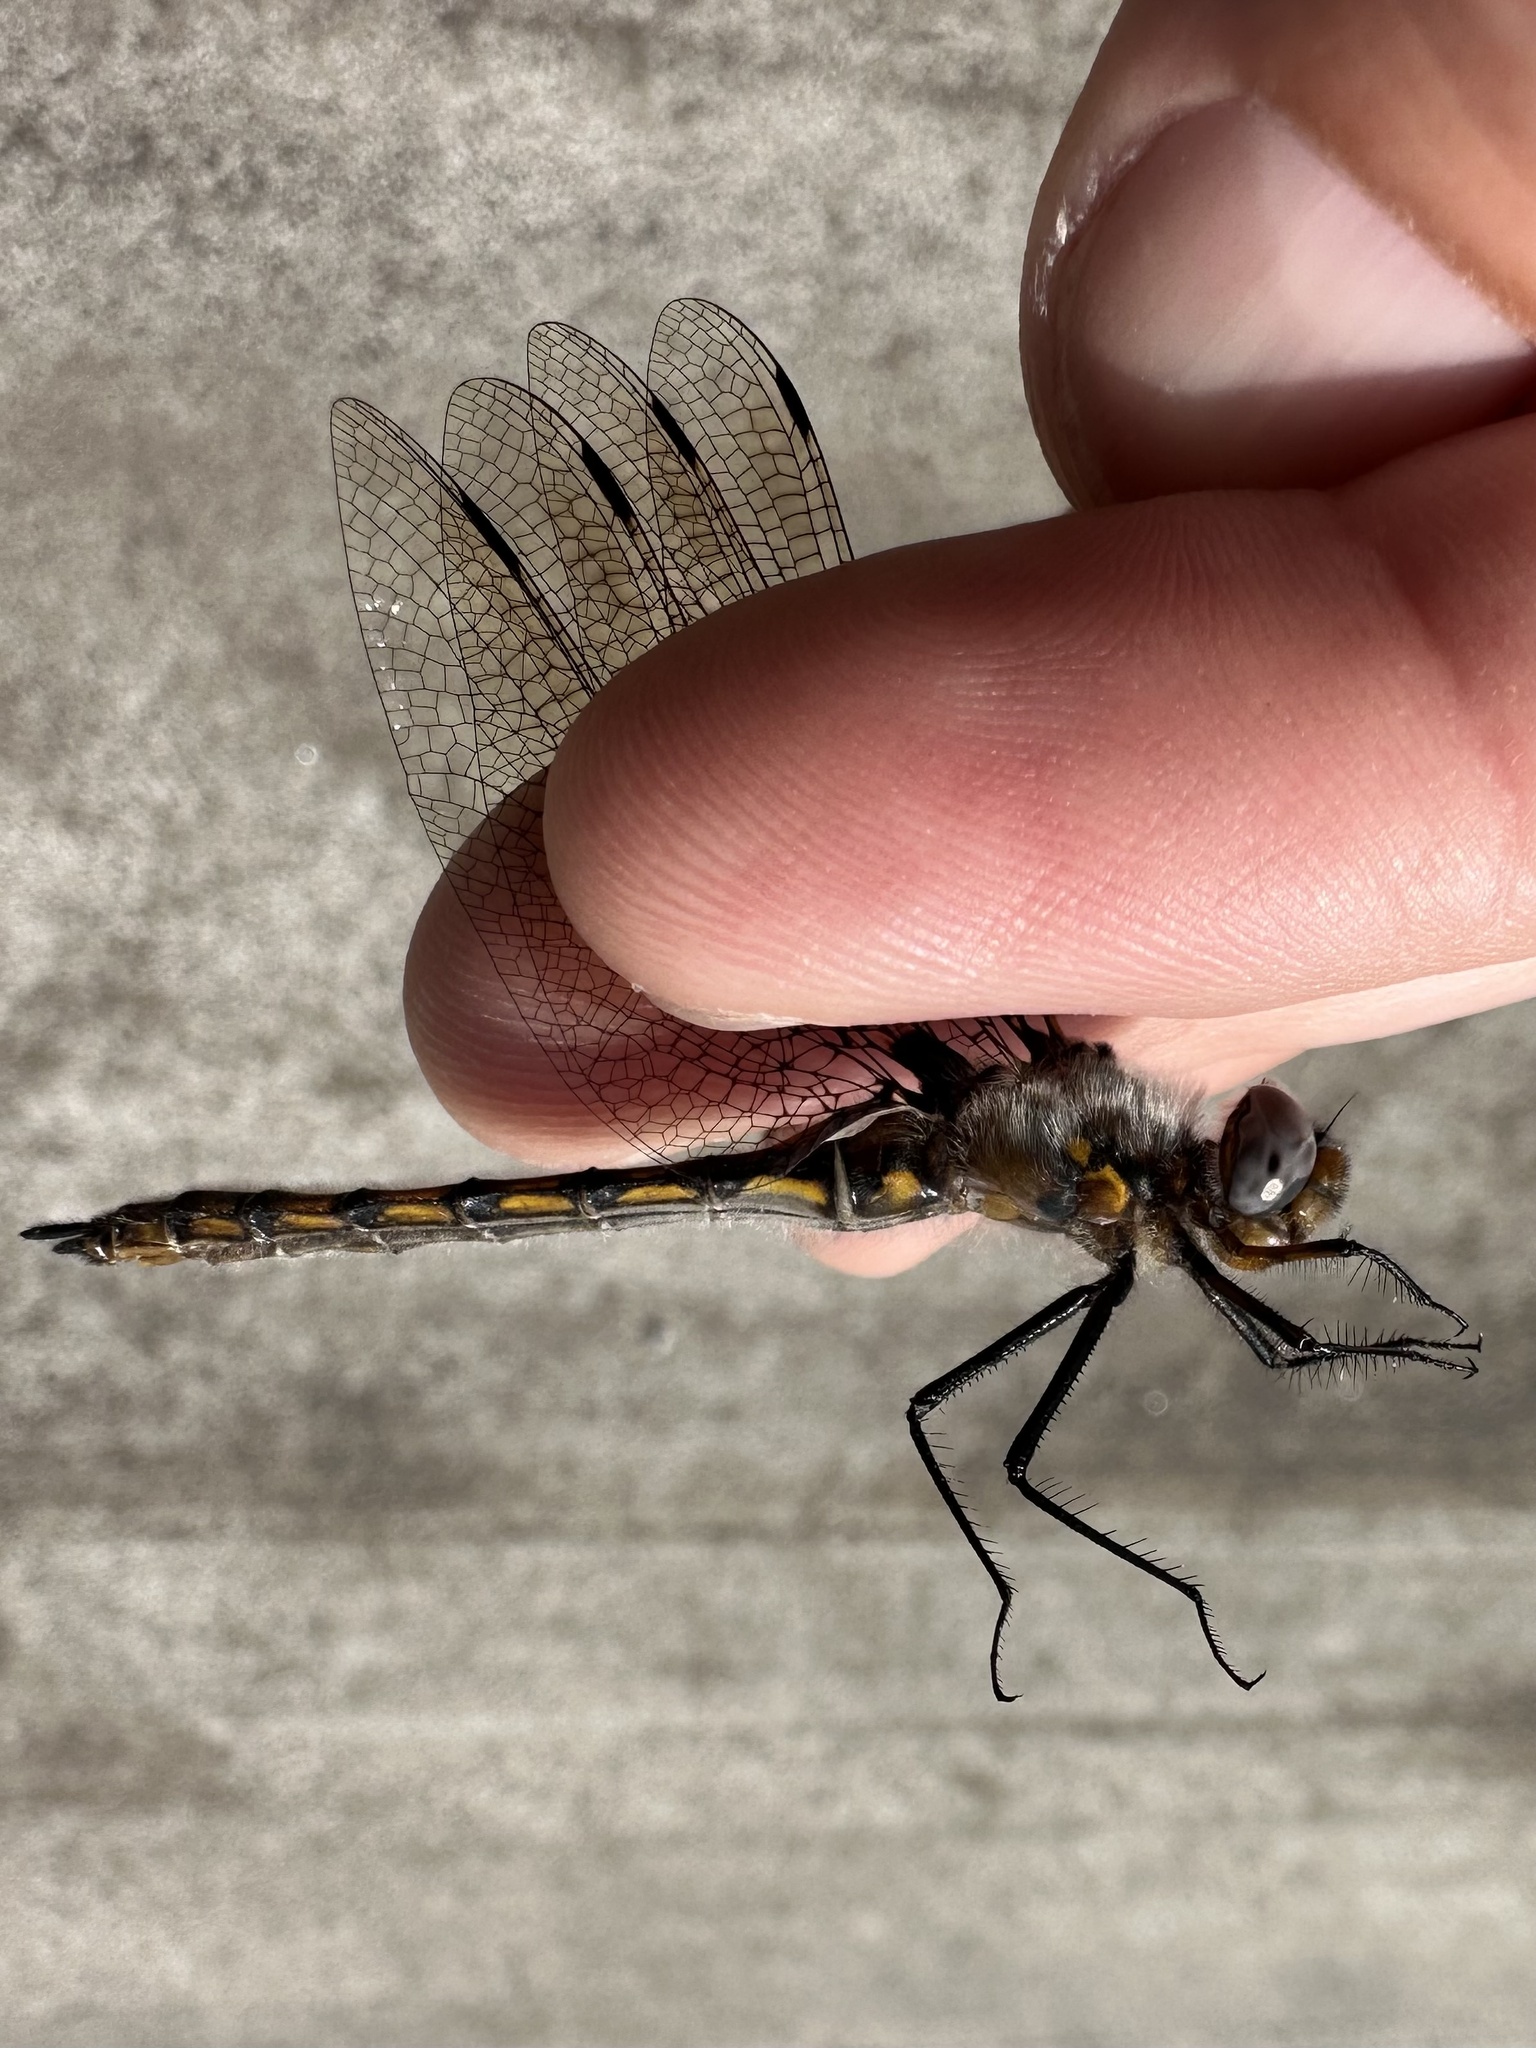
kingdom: Animalia
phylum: Arthropoda
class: Insecta
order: Odonata
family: Corduliidae
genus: Epitheca
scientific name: Epitheca canis
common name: Beaverpond baskettail
